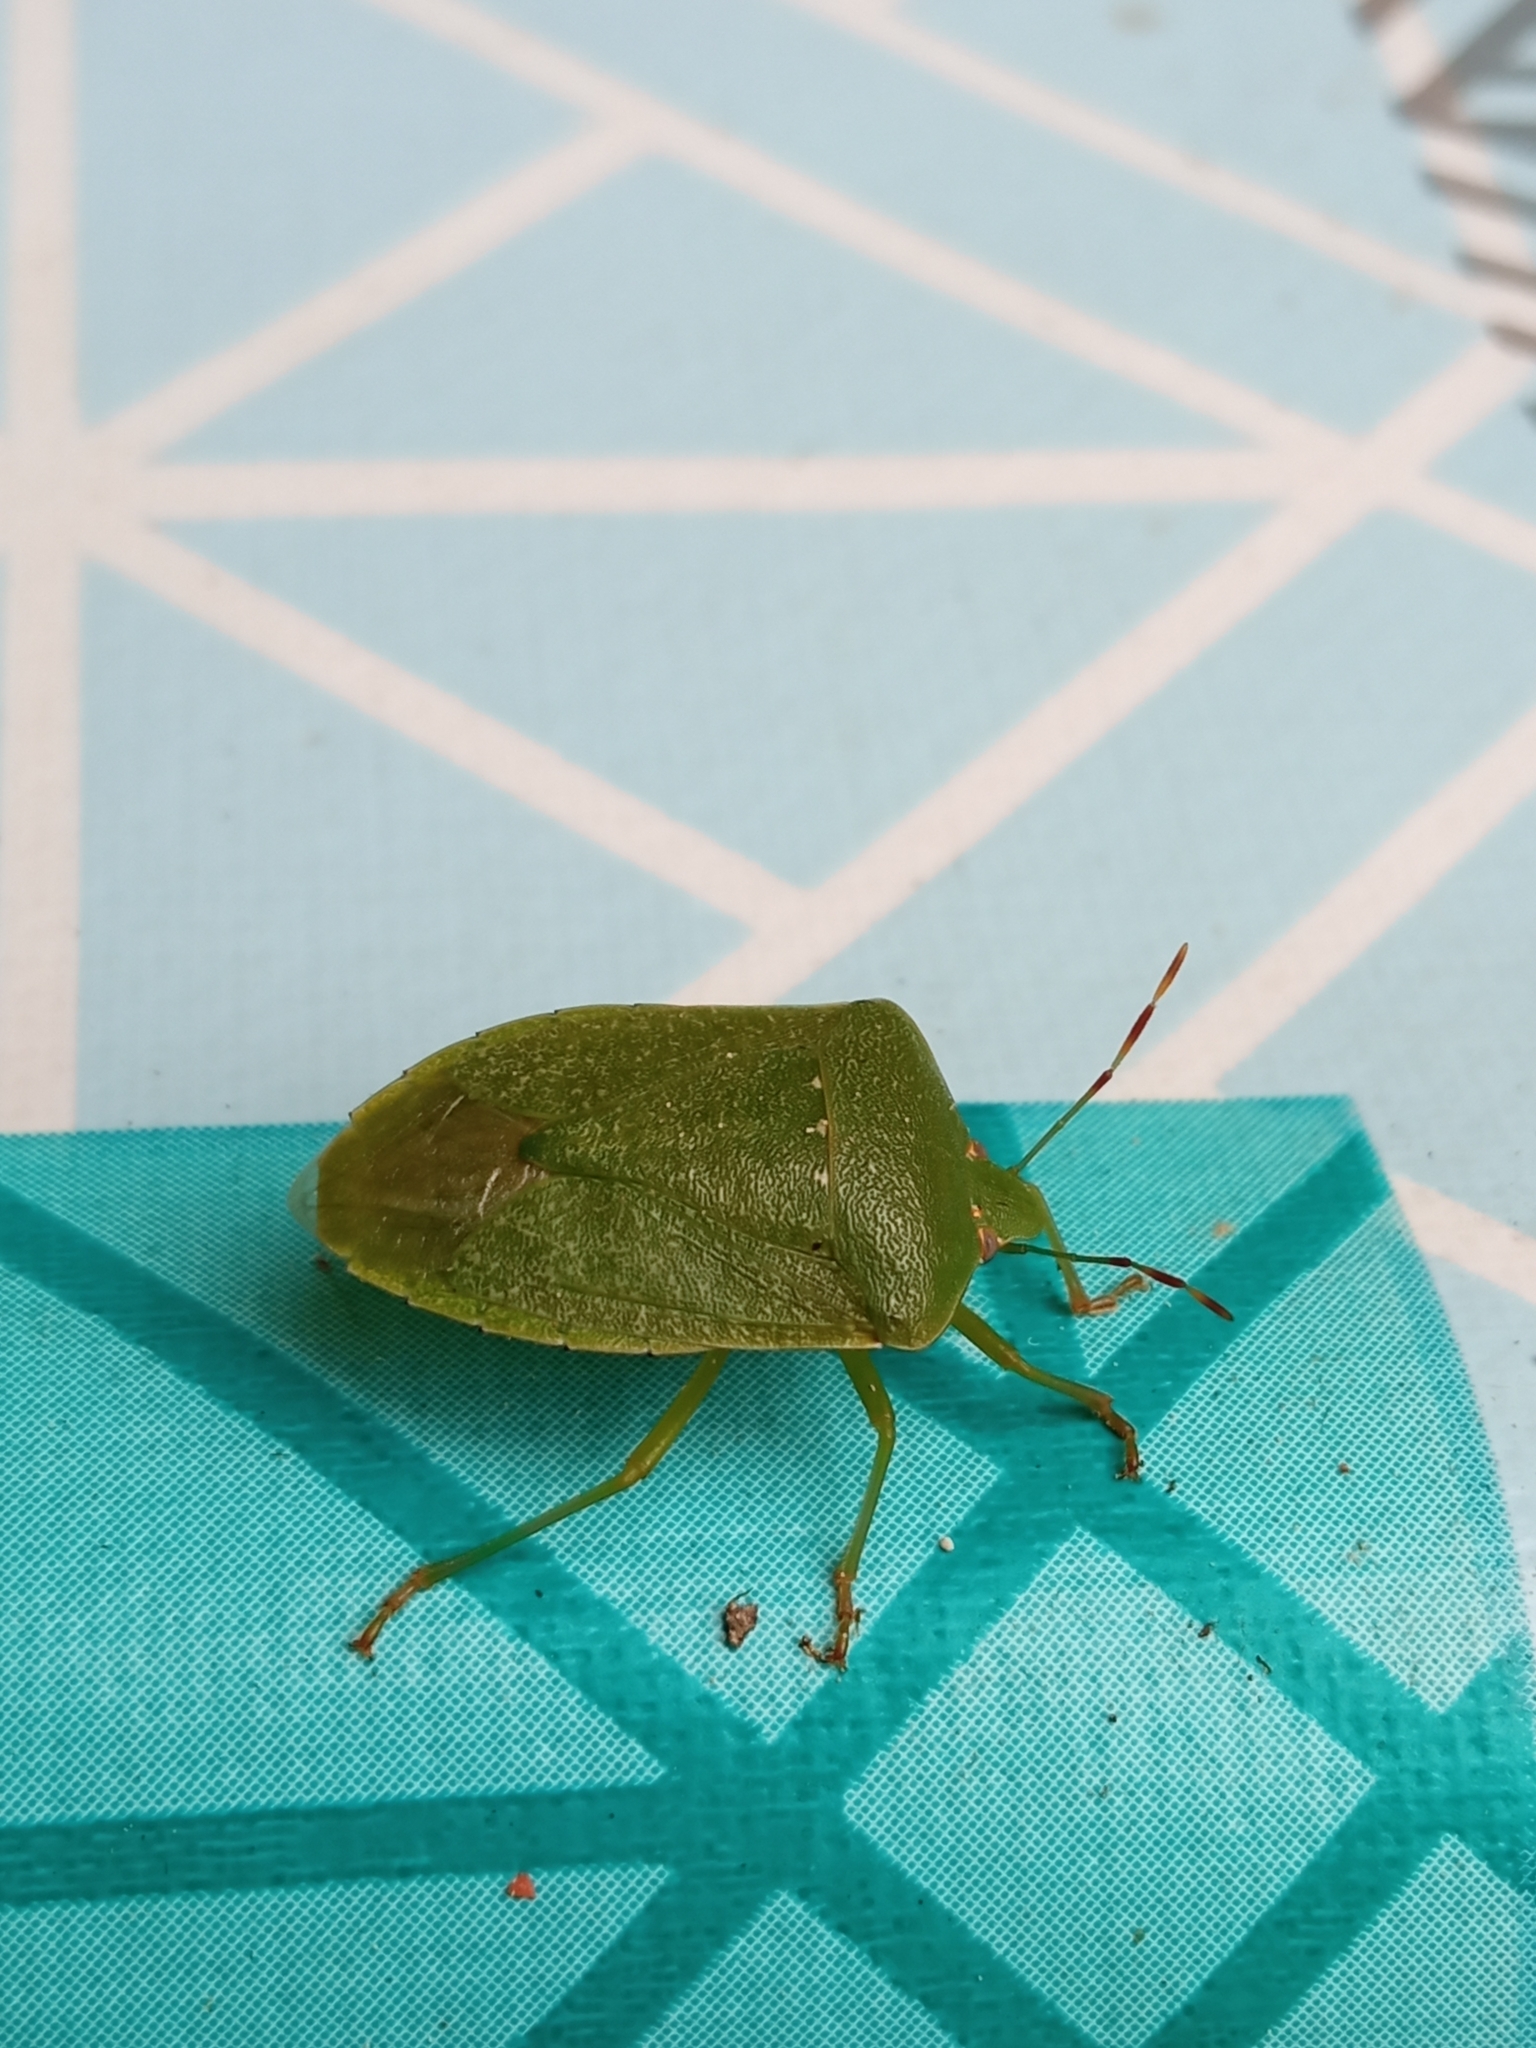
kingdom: Animalia
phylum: Arthropoda
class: Insecta
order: Hemiptera
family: Pentatomidae
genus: Nezara
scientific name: Nezara viridula
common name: Southern green stink bug
